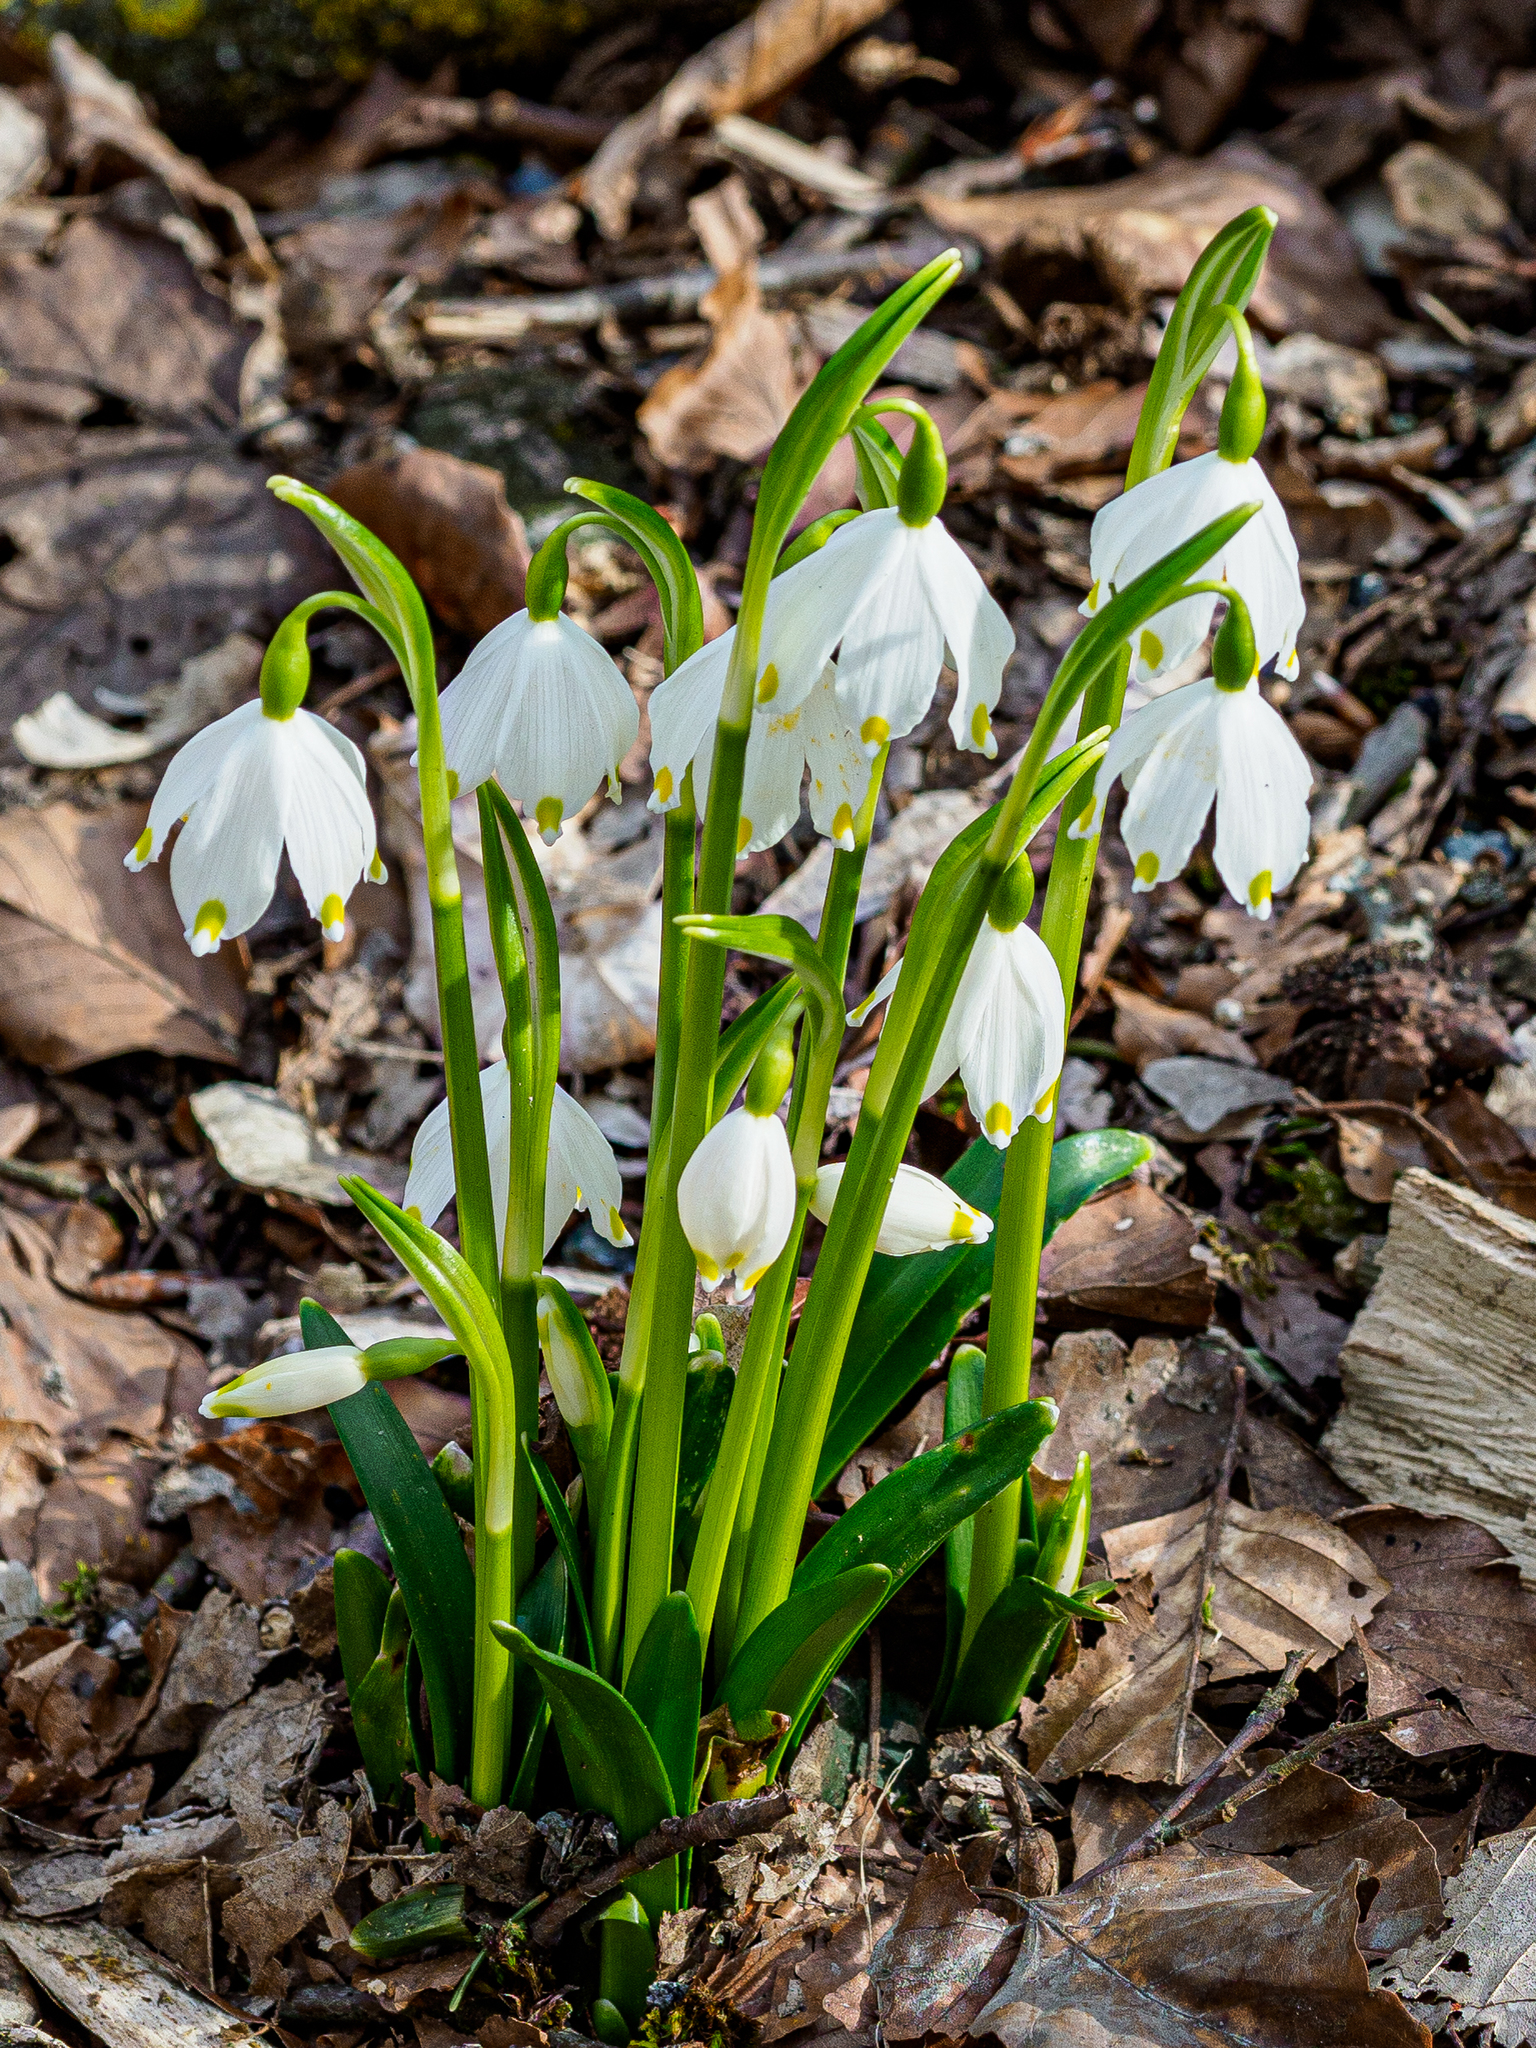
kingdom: Plantae
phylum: Tracheophyta
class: Liliopsida
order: Asparagales
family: Amaryllidaceae
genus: Leucojum
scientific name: Leucojum vernum
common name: Spring snowflake
